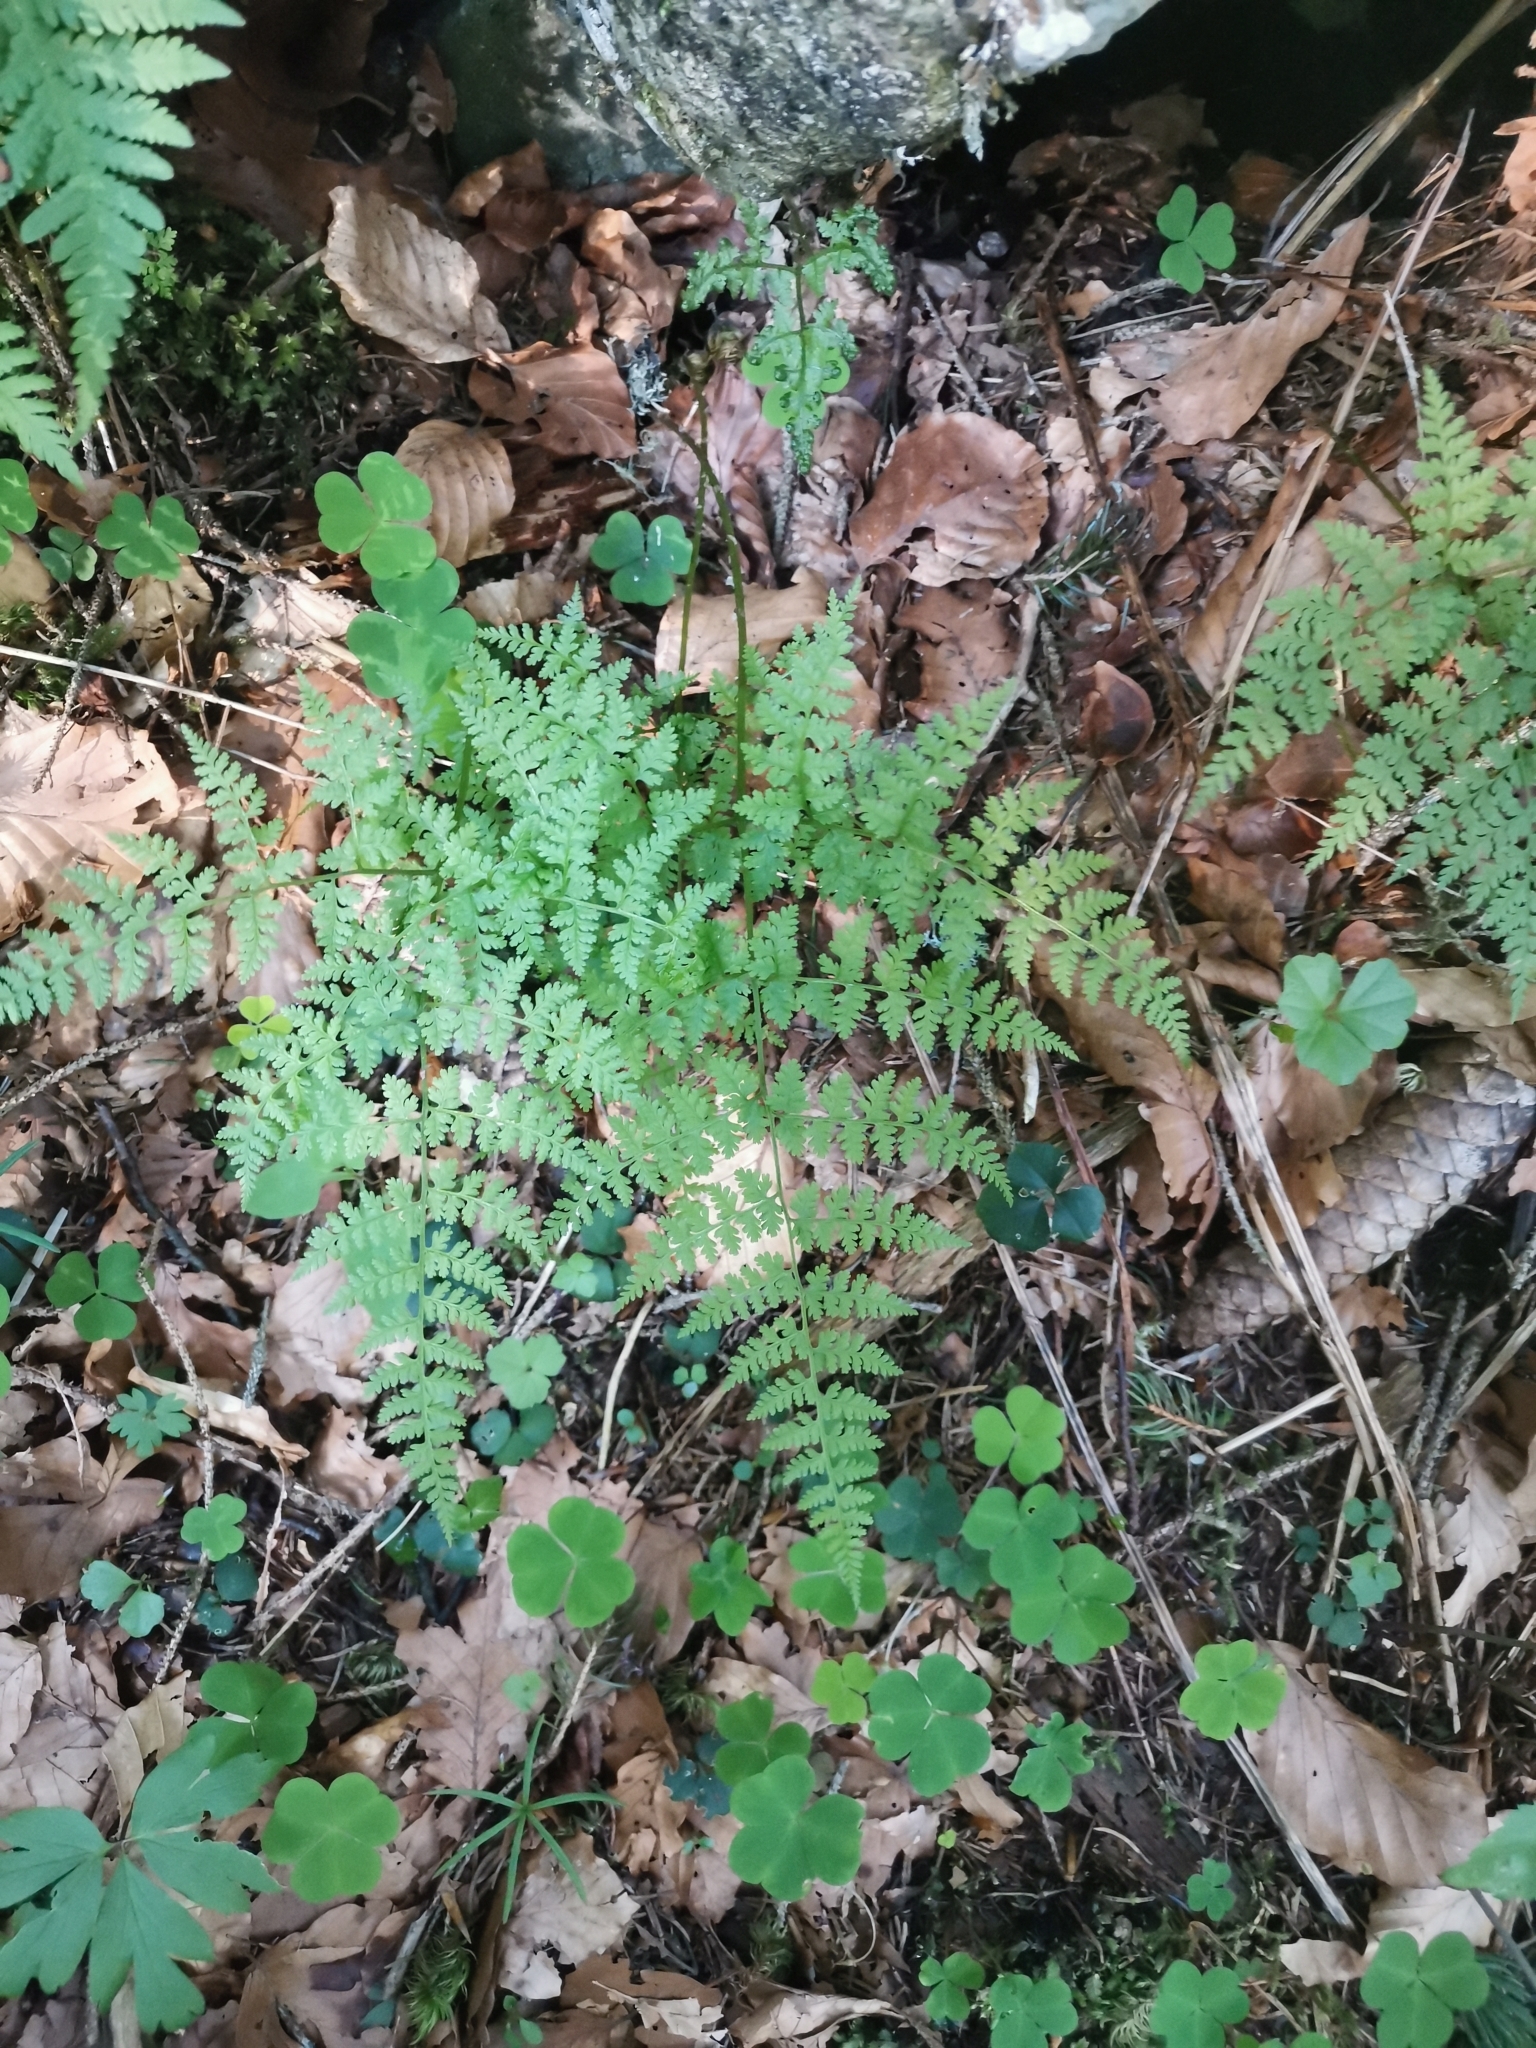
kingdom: Plantae
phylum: Tracheophyta
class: Polypodiopsida
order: Polypodiales
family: Cystopteridaceae
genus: Cystopteris
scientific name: Cystopteris montana
